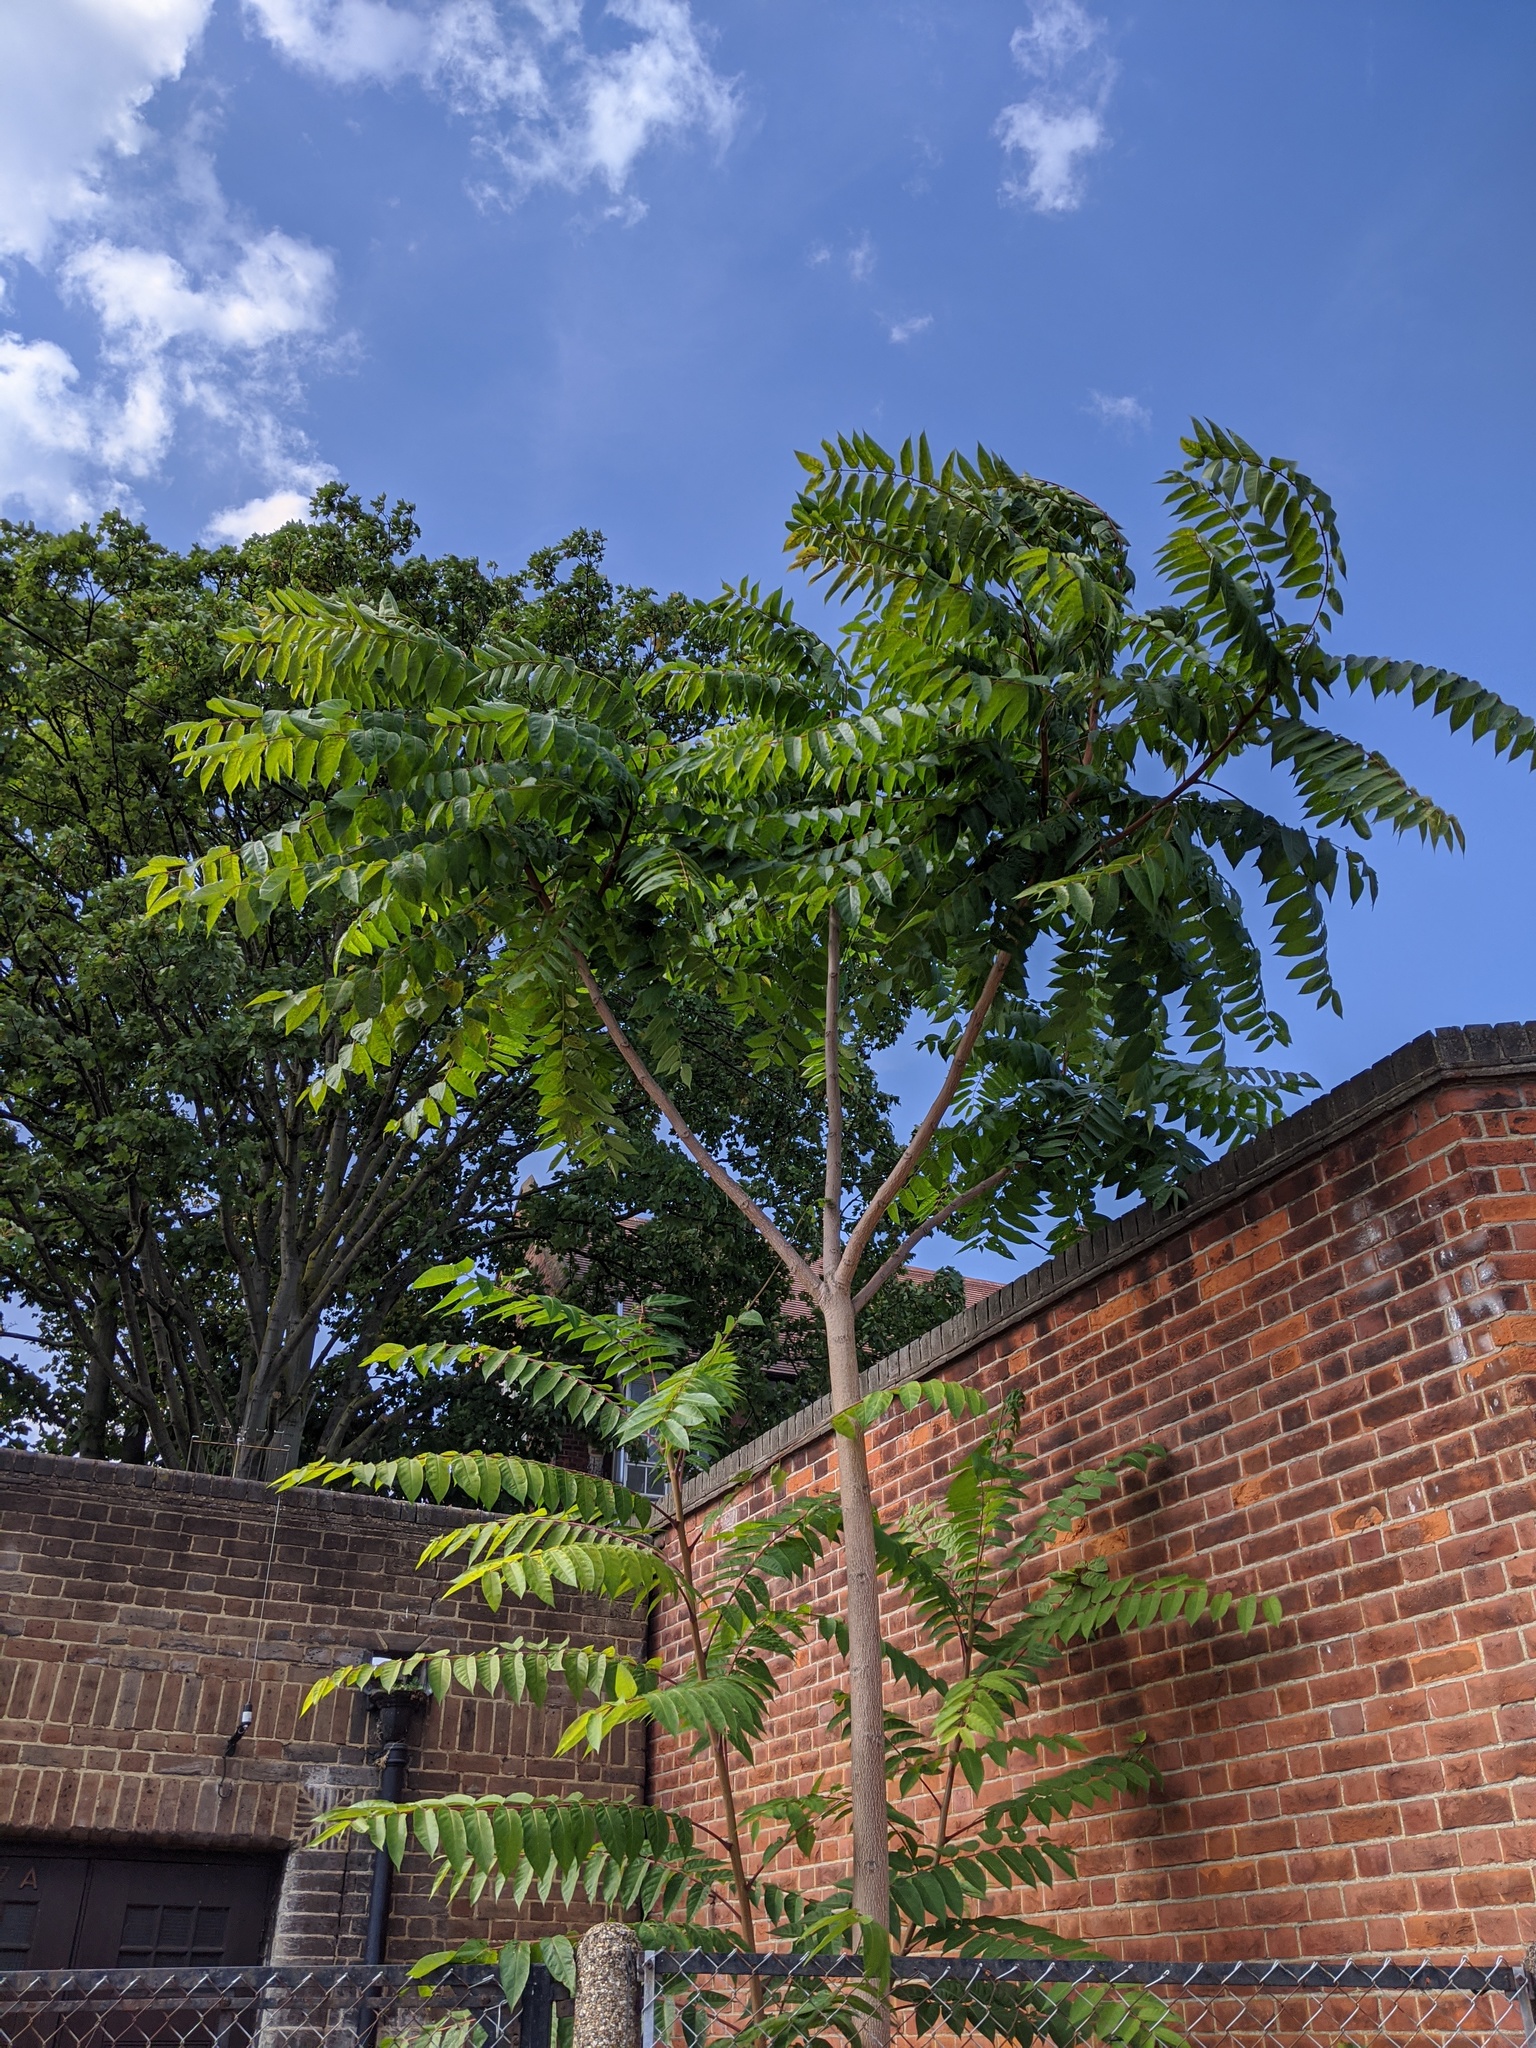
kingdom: Plantae
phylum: Tracheophyta
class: Magnoliopsida
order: Sapindales
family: Simaroubaceae
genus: Ailanthus
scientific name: Ailanthus altissima
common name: Tree-of-heaven
